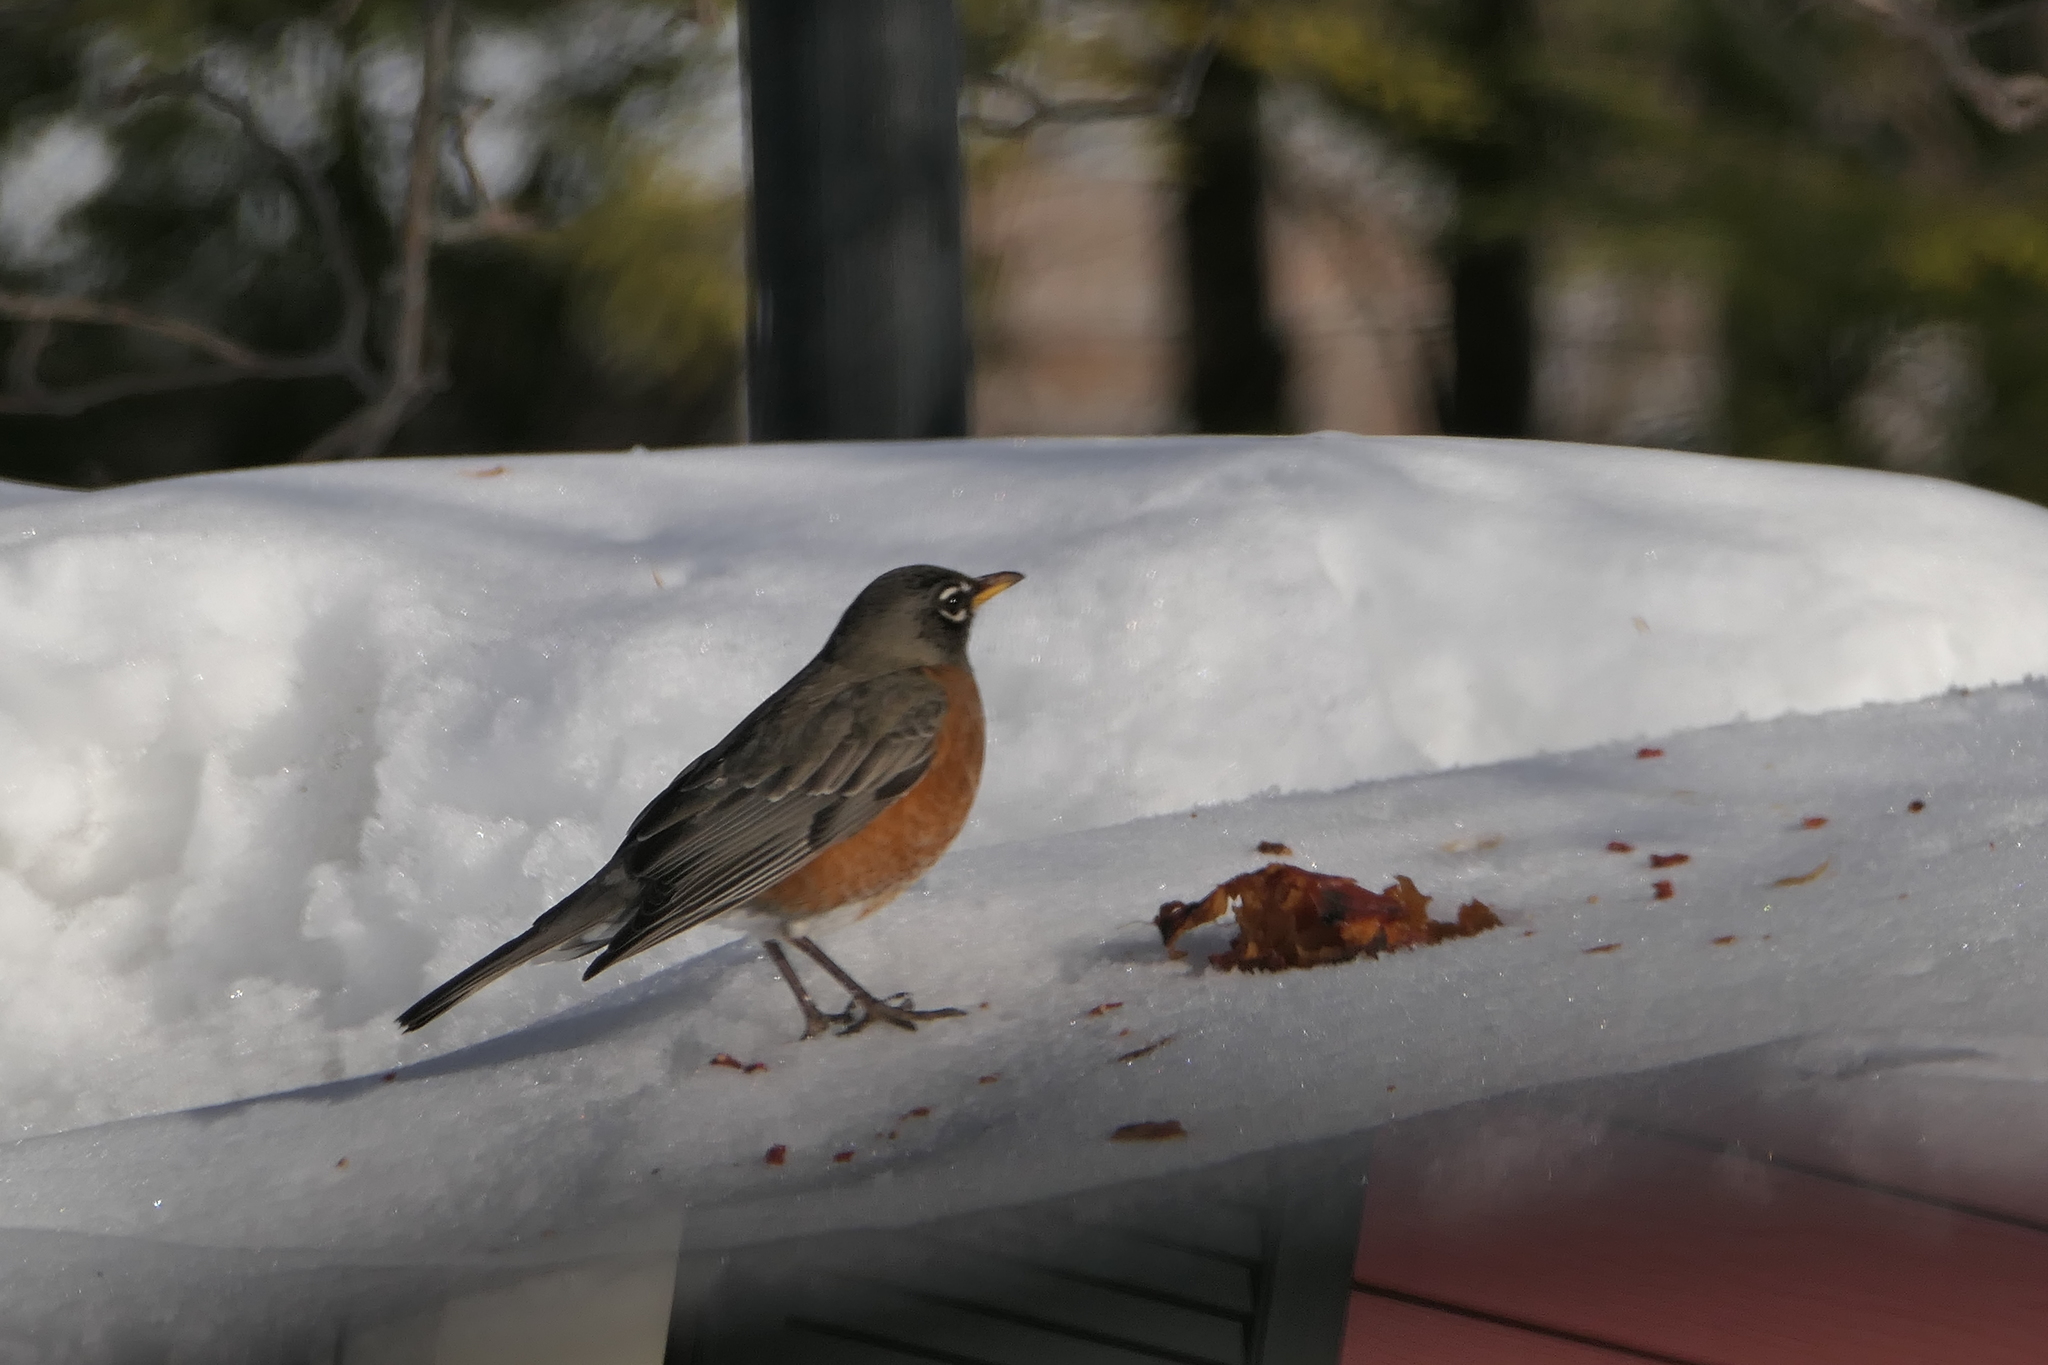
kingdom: Animalia
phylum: Chordata
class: Aves
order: Passeriformes
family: Turdidae
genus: Turdus
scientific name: Turdus migratorius
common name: American robin
